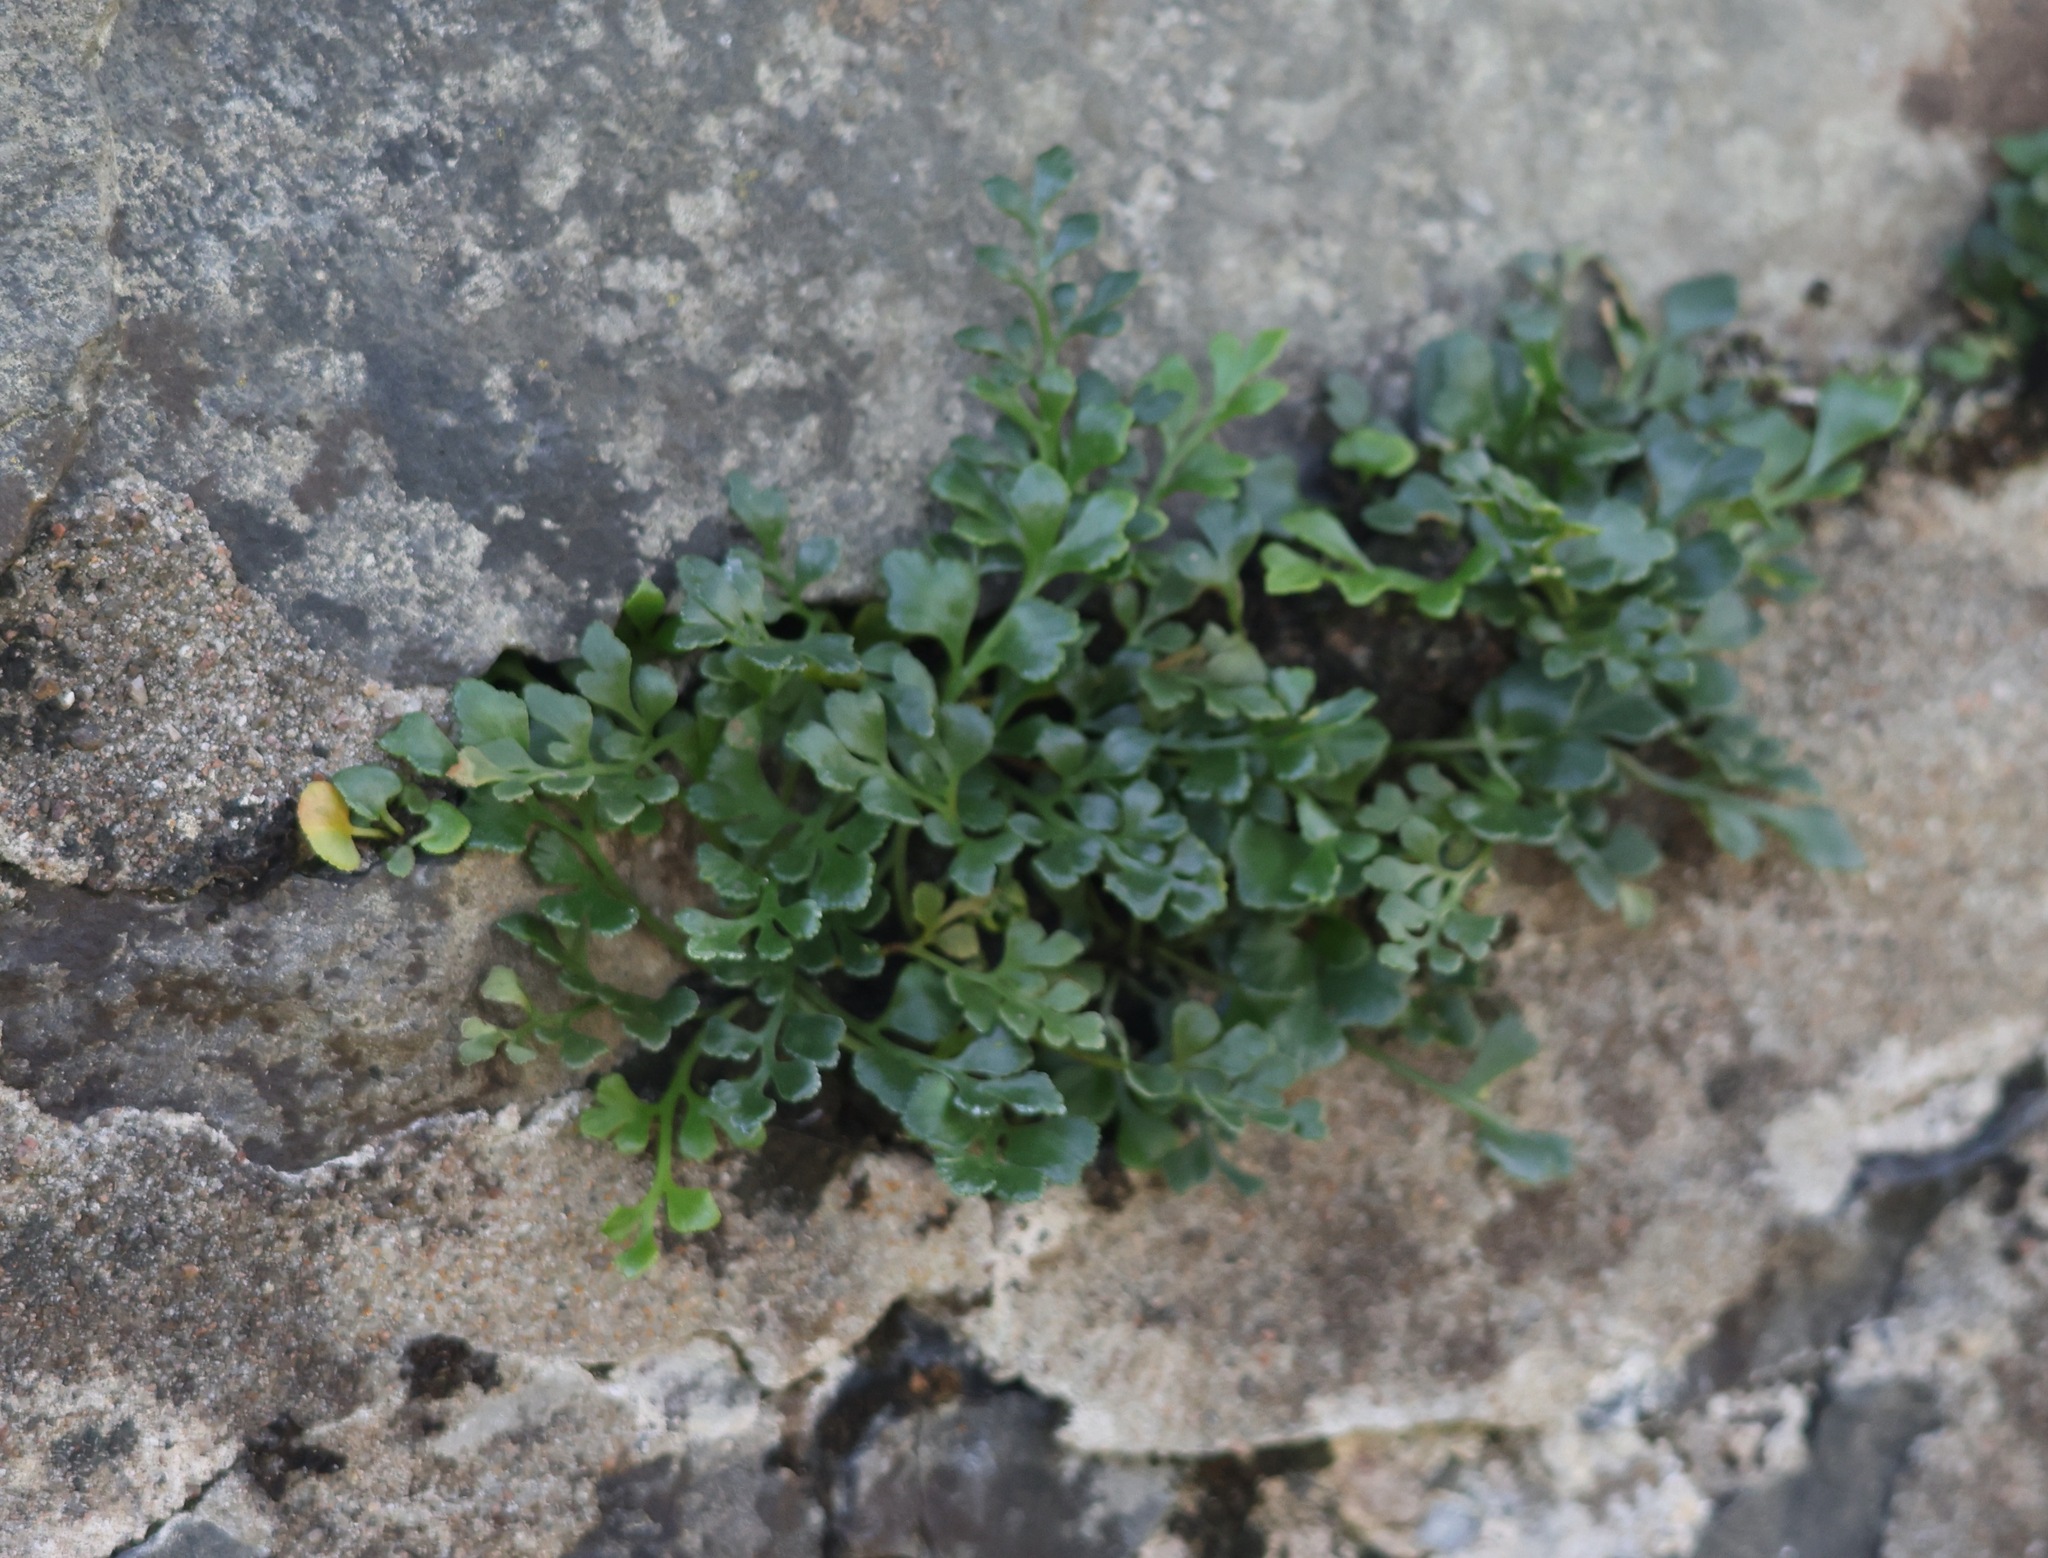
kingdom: Plantae
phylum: Tracheophyta
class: Polypodiopsida
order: Polypodiales
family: Aspleniaceae
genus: Asplenium
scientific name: Asplenium ruta-muraria
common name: Wall-rue
